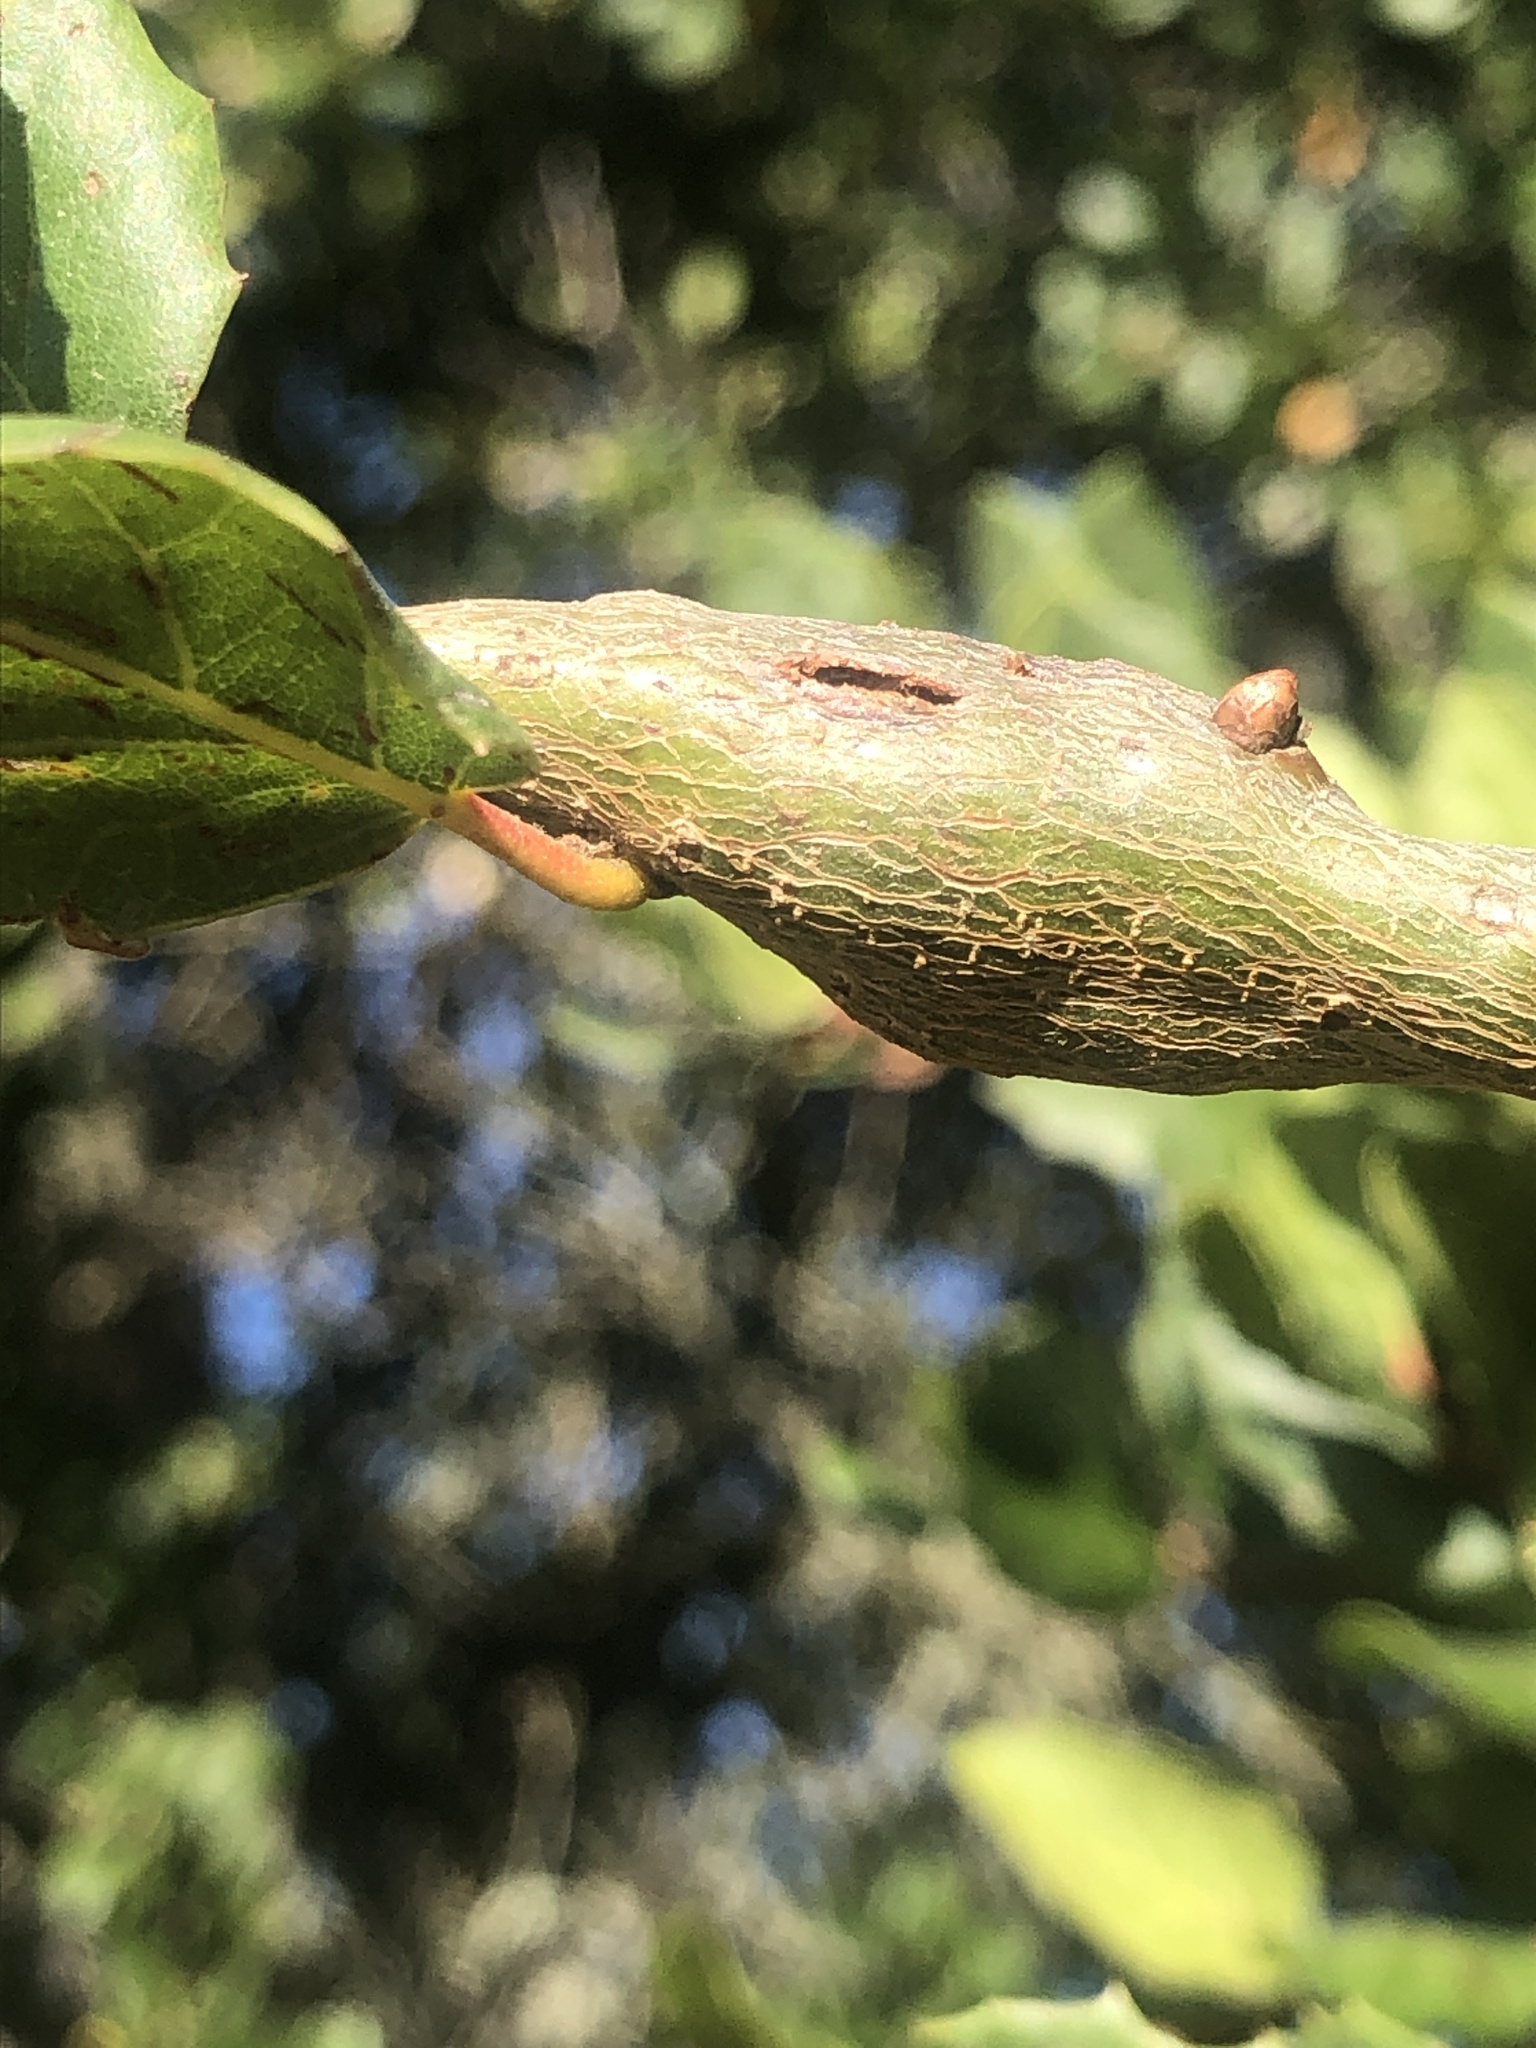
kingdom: Animalia
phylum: Arthropoda
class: Insecta
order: Hymenoptera
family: Cynipidae
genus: Callirhytis
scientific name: Callirhytis
